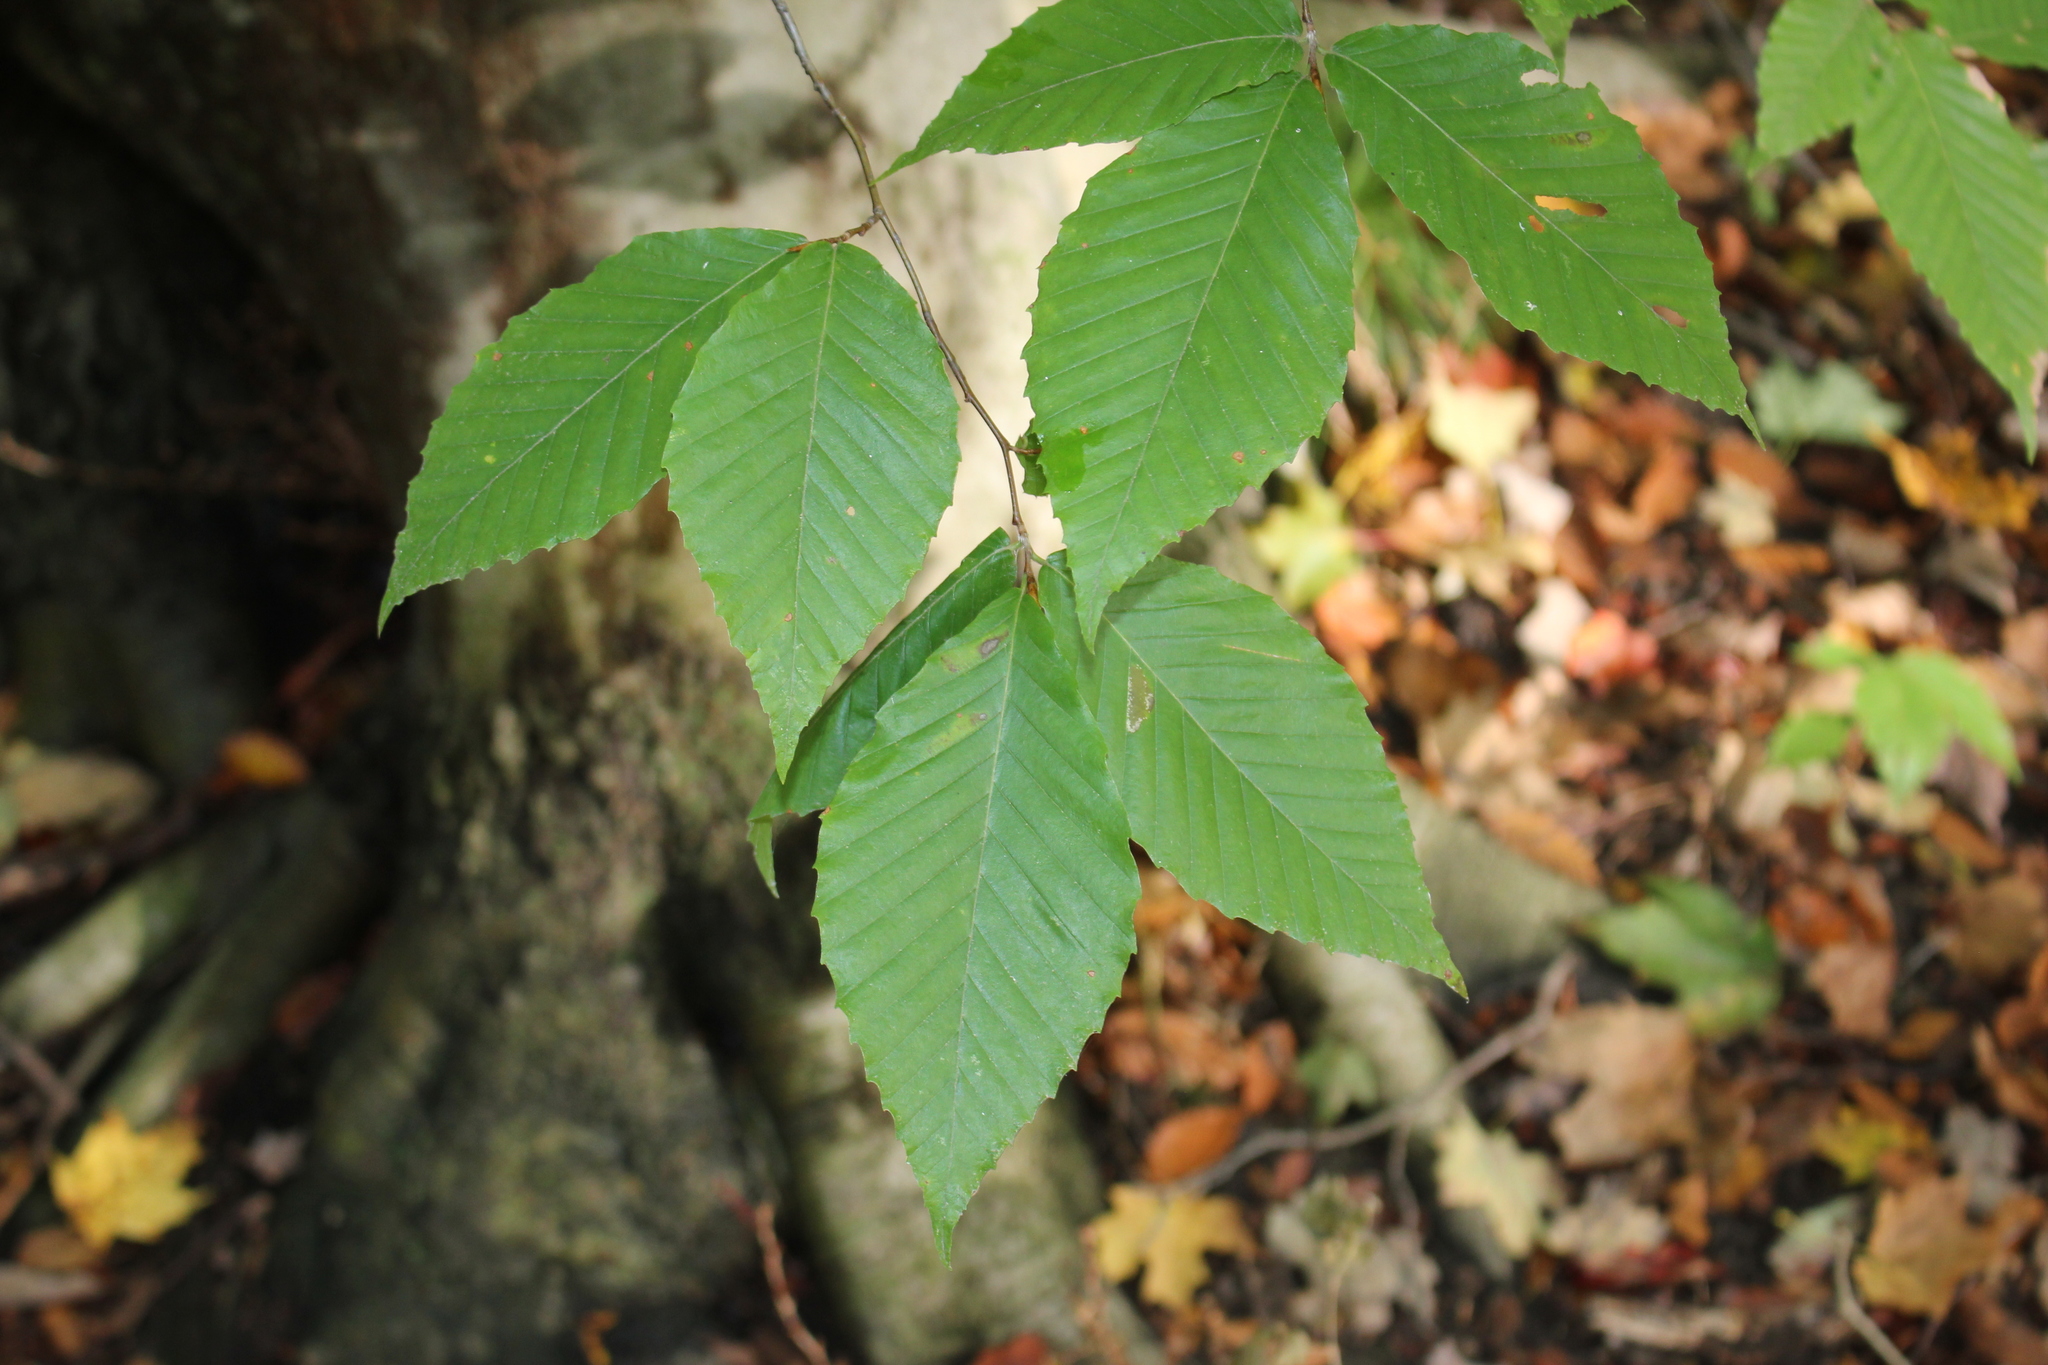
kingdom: Plantae
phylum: Tracheophyta
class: Magnoliopsida
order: Fagales
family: Fagaceae
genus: Fagus
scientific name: Fagus grandifolia
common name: American beech
